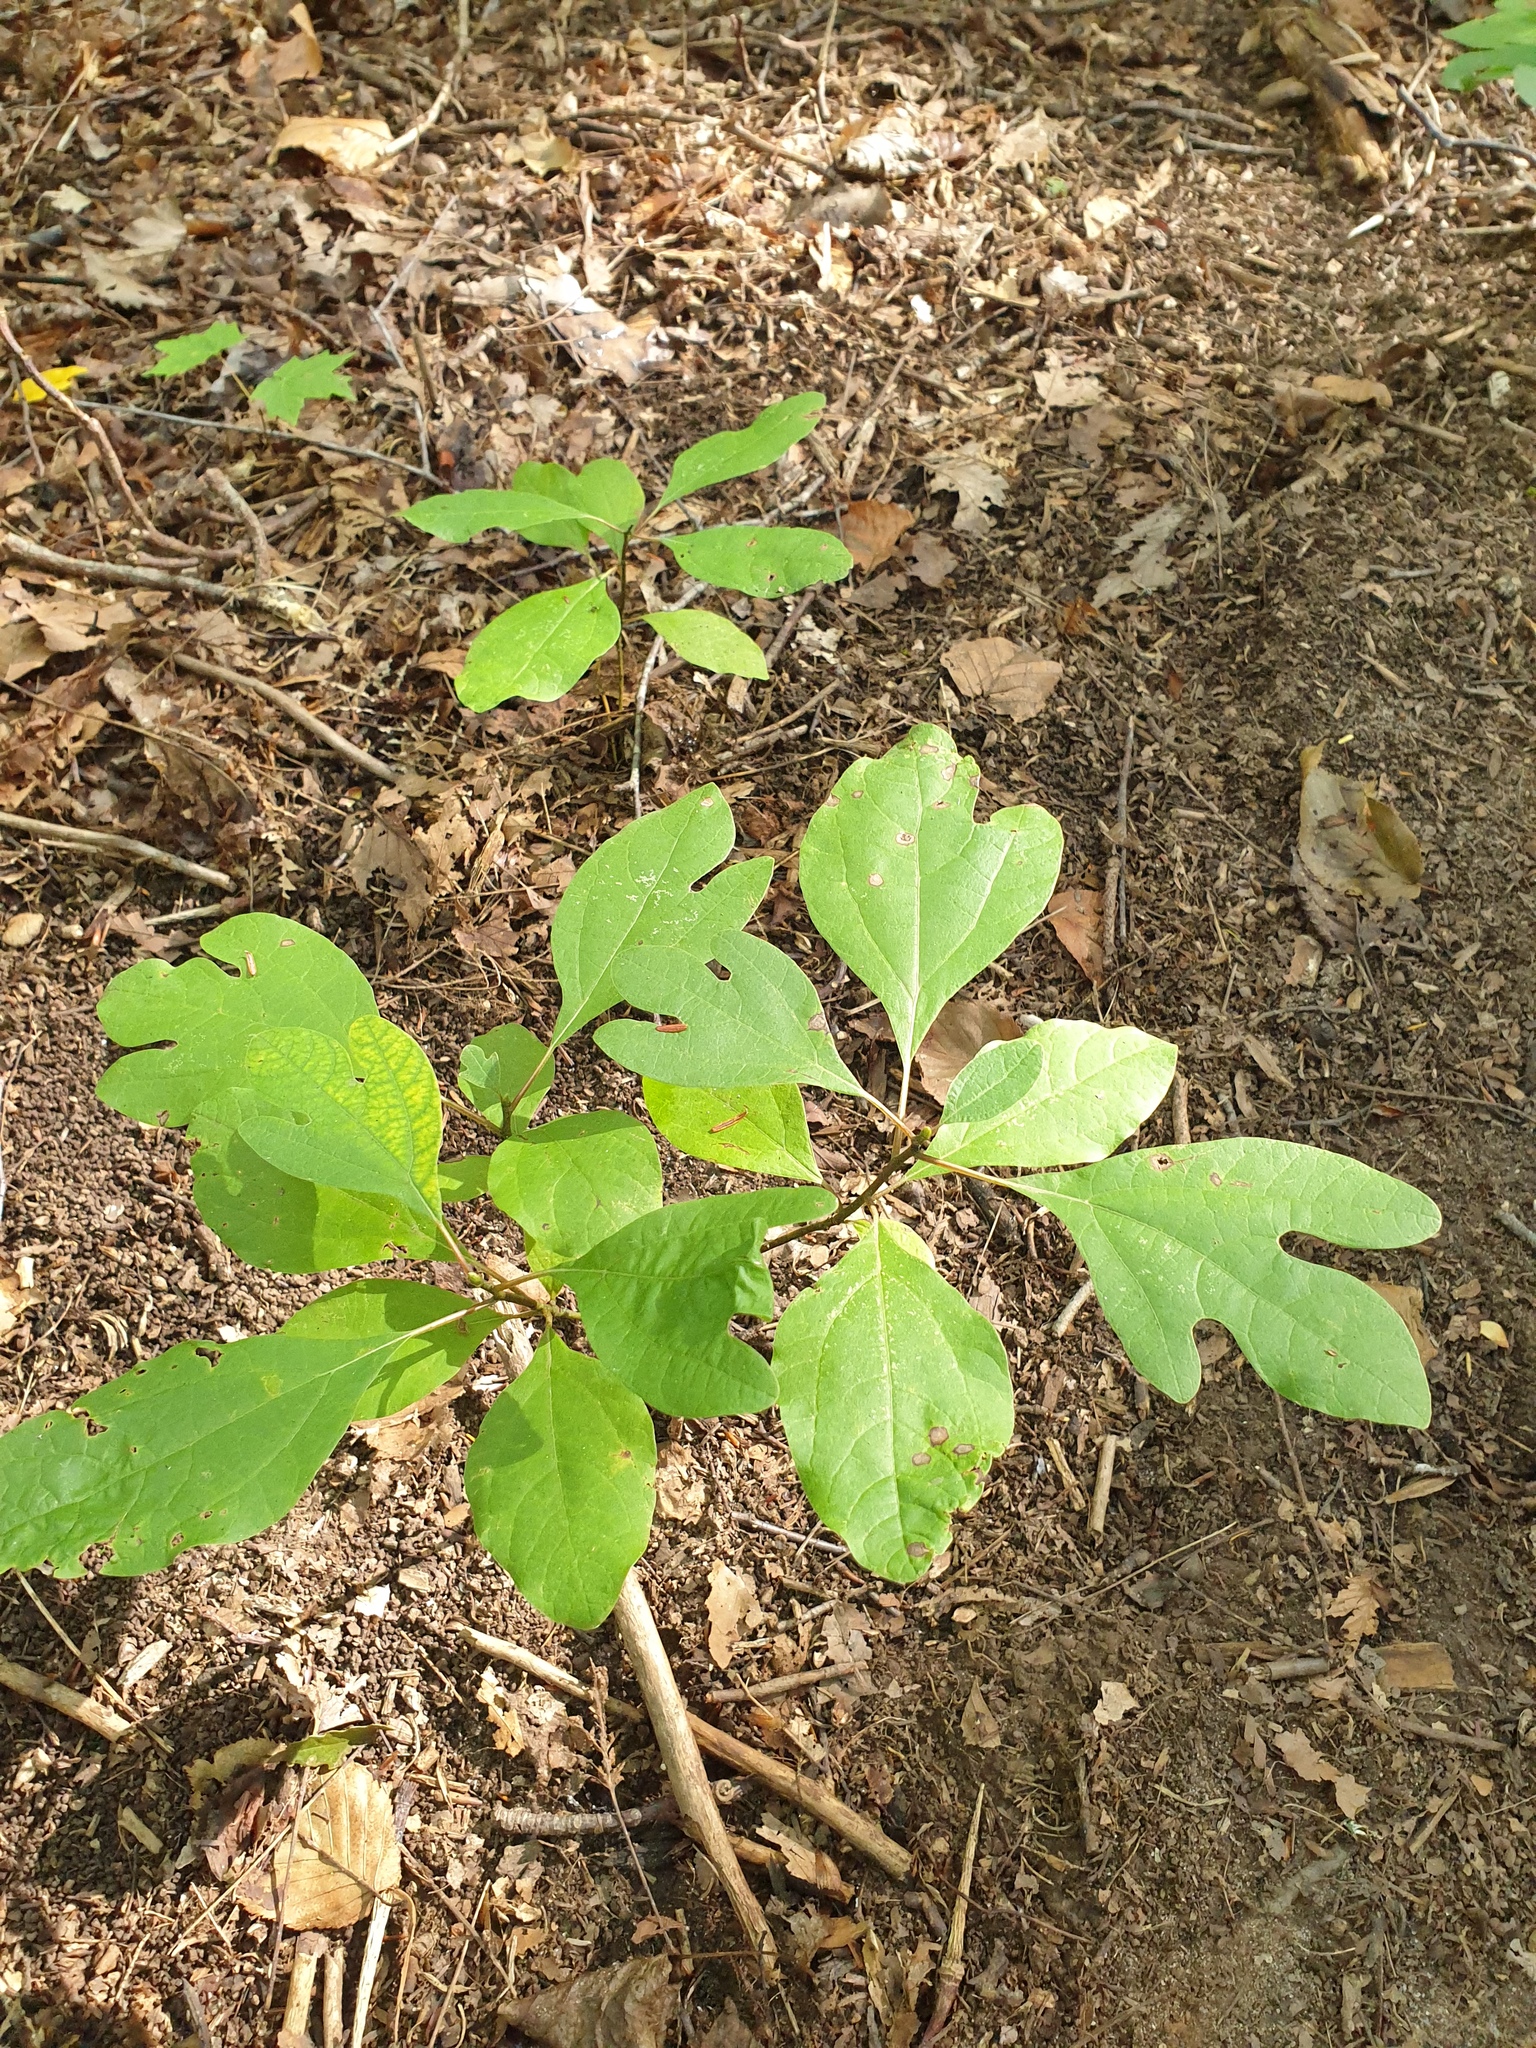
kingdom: Plantae
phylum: Tracheophyta
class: Magnoliopsida
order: Laurales
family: Lauraceae
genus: Sassafras
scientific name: Sassafras albidum
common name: Sassafras
